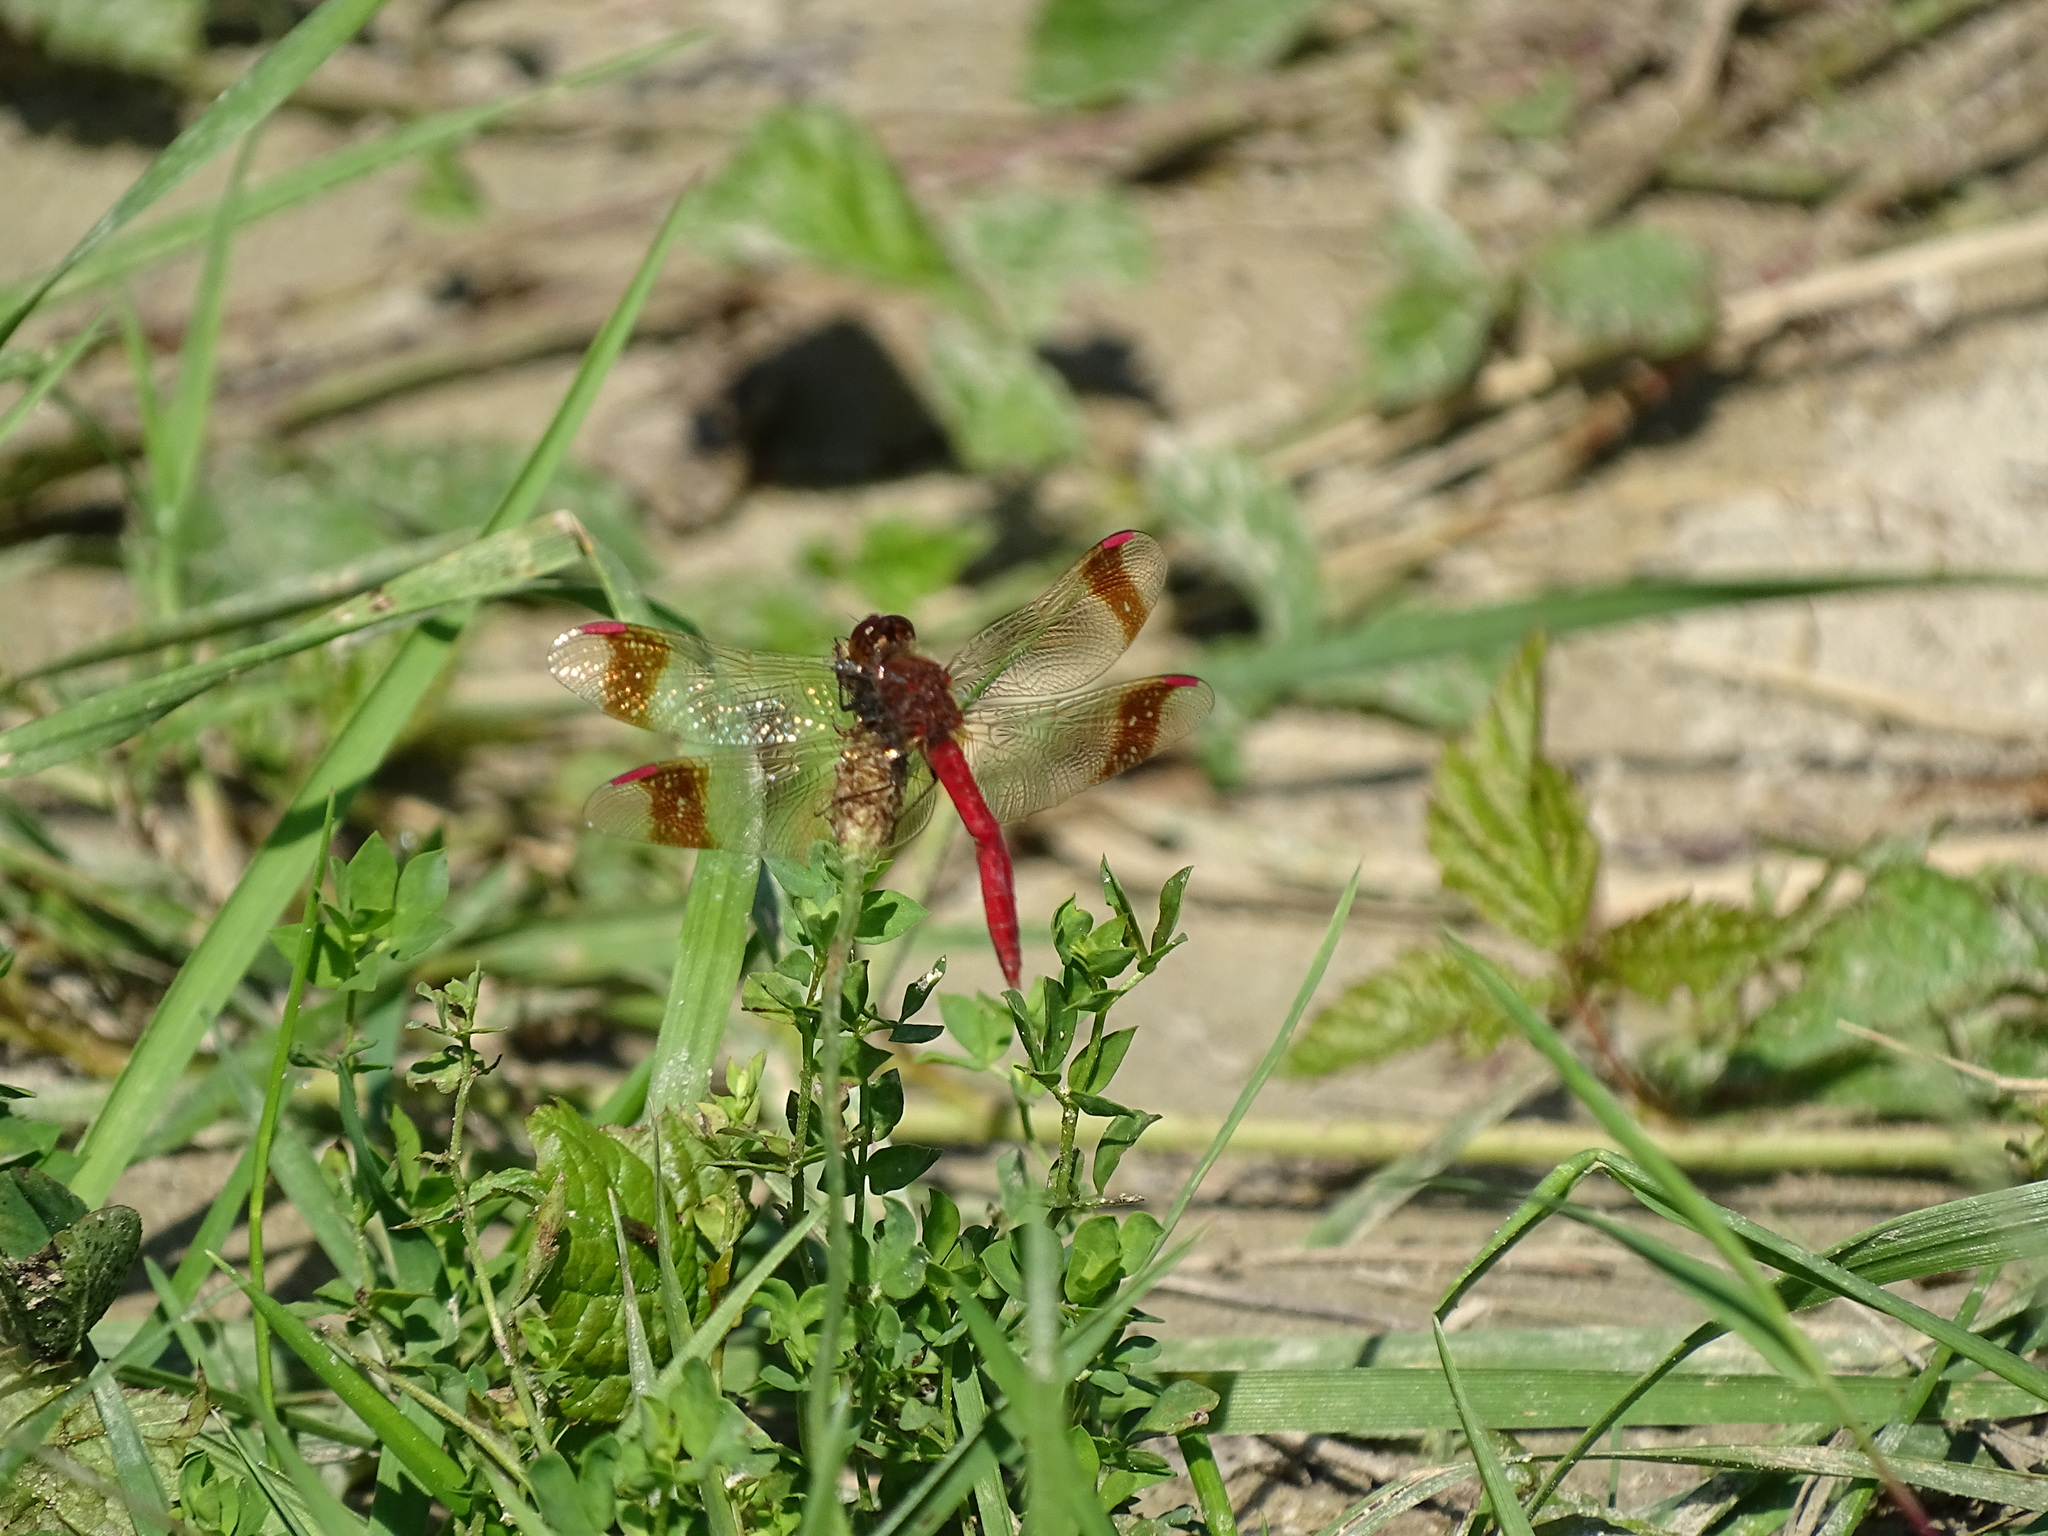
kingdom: Animalia
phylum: Arthropoda
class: Insecta
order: Odonata
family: Libellulidae
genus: Sympetrum
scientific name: Sympetrum pedemontanum
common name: Banded darter
